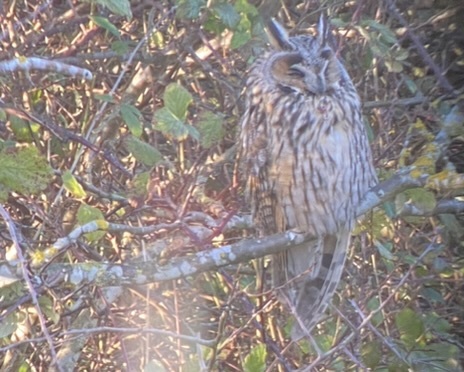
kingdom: Animalia
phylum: Chordata
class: Aves
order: Strigiformes
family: Strigidae
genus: Asio
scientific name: Asio otus
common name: Long-eared owl
